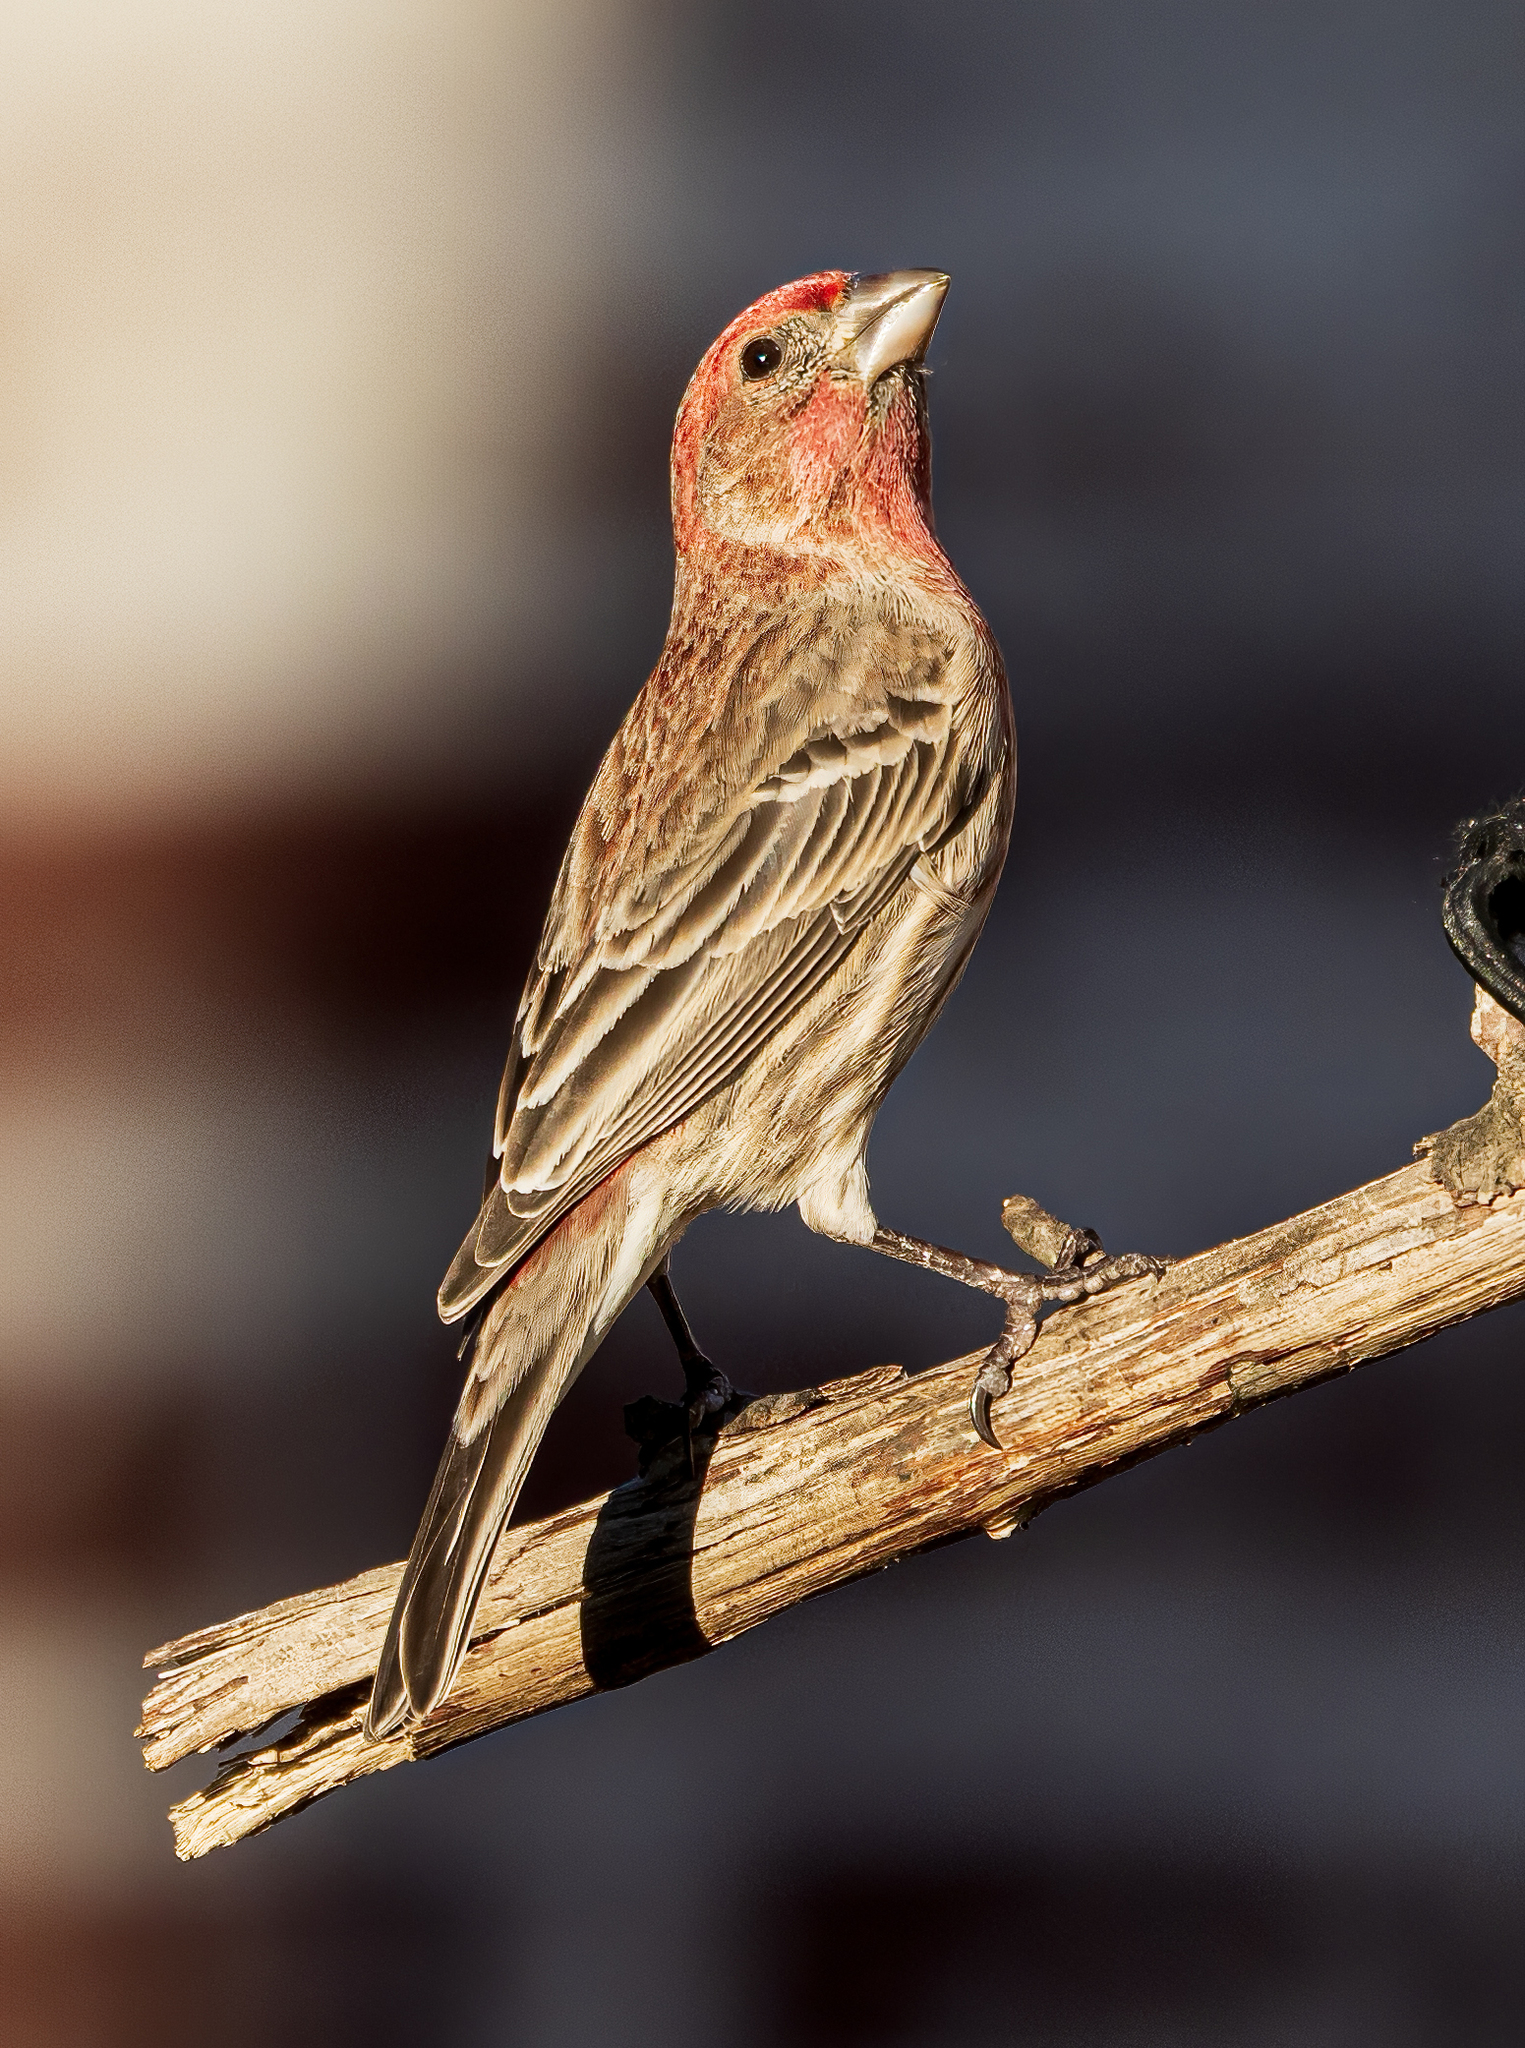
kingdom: Animalia
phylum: Chordata
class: Aves
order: Passeriformes
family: Fringillidae
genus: Haemorhous
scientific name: Haemorhous mexicanus
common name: House finch
